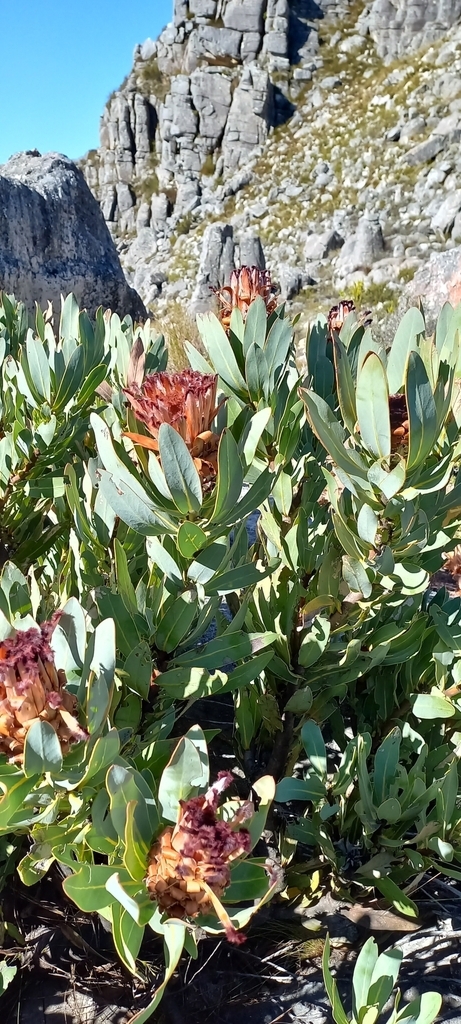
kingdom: Plantae
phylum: Tracheophyta
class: Magnoliopsida
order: Proteales
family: Proteaceae
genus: Protea
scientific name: Protea laurifolia
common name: Grey-leaf sugarbsh
